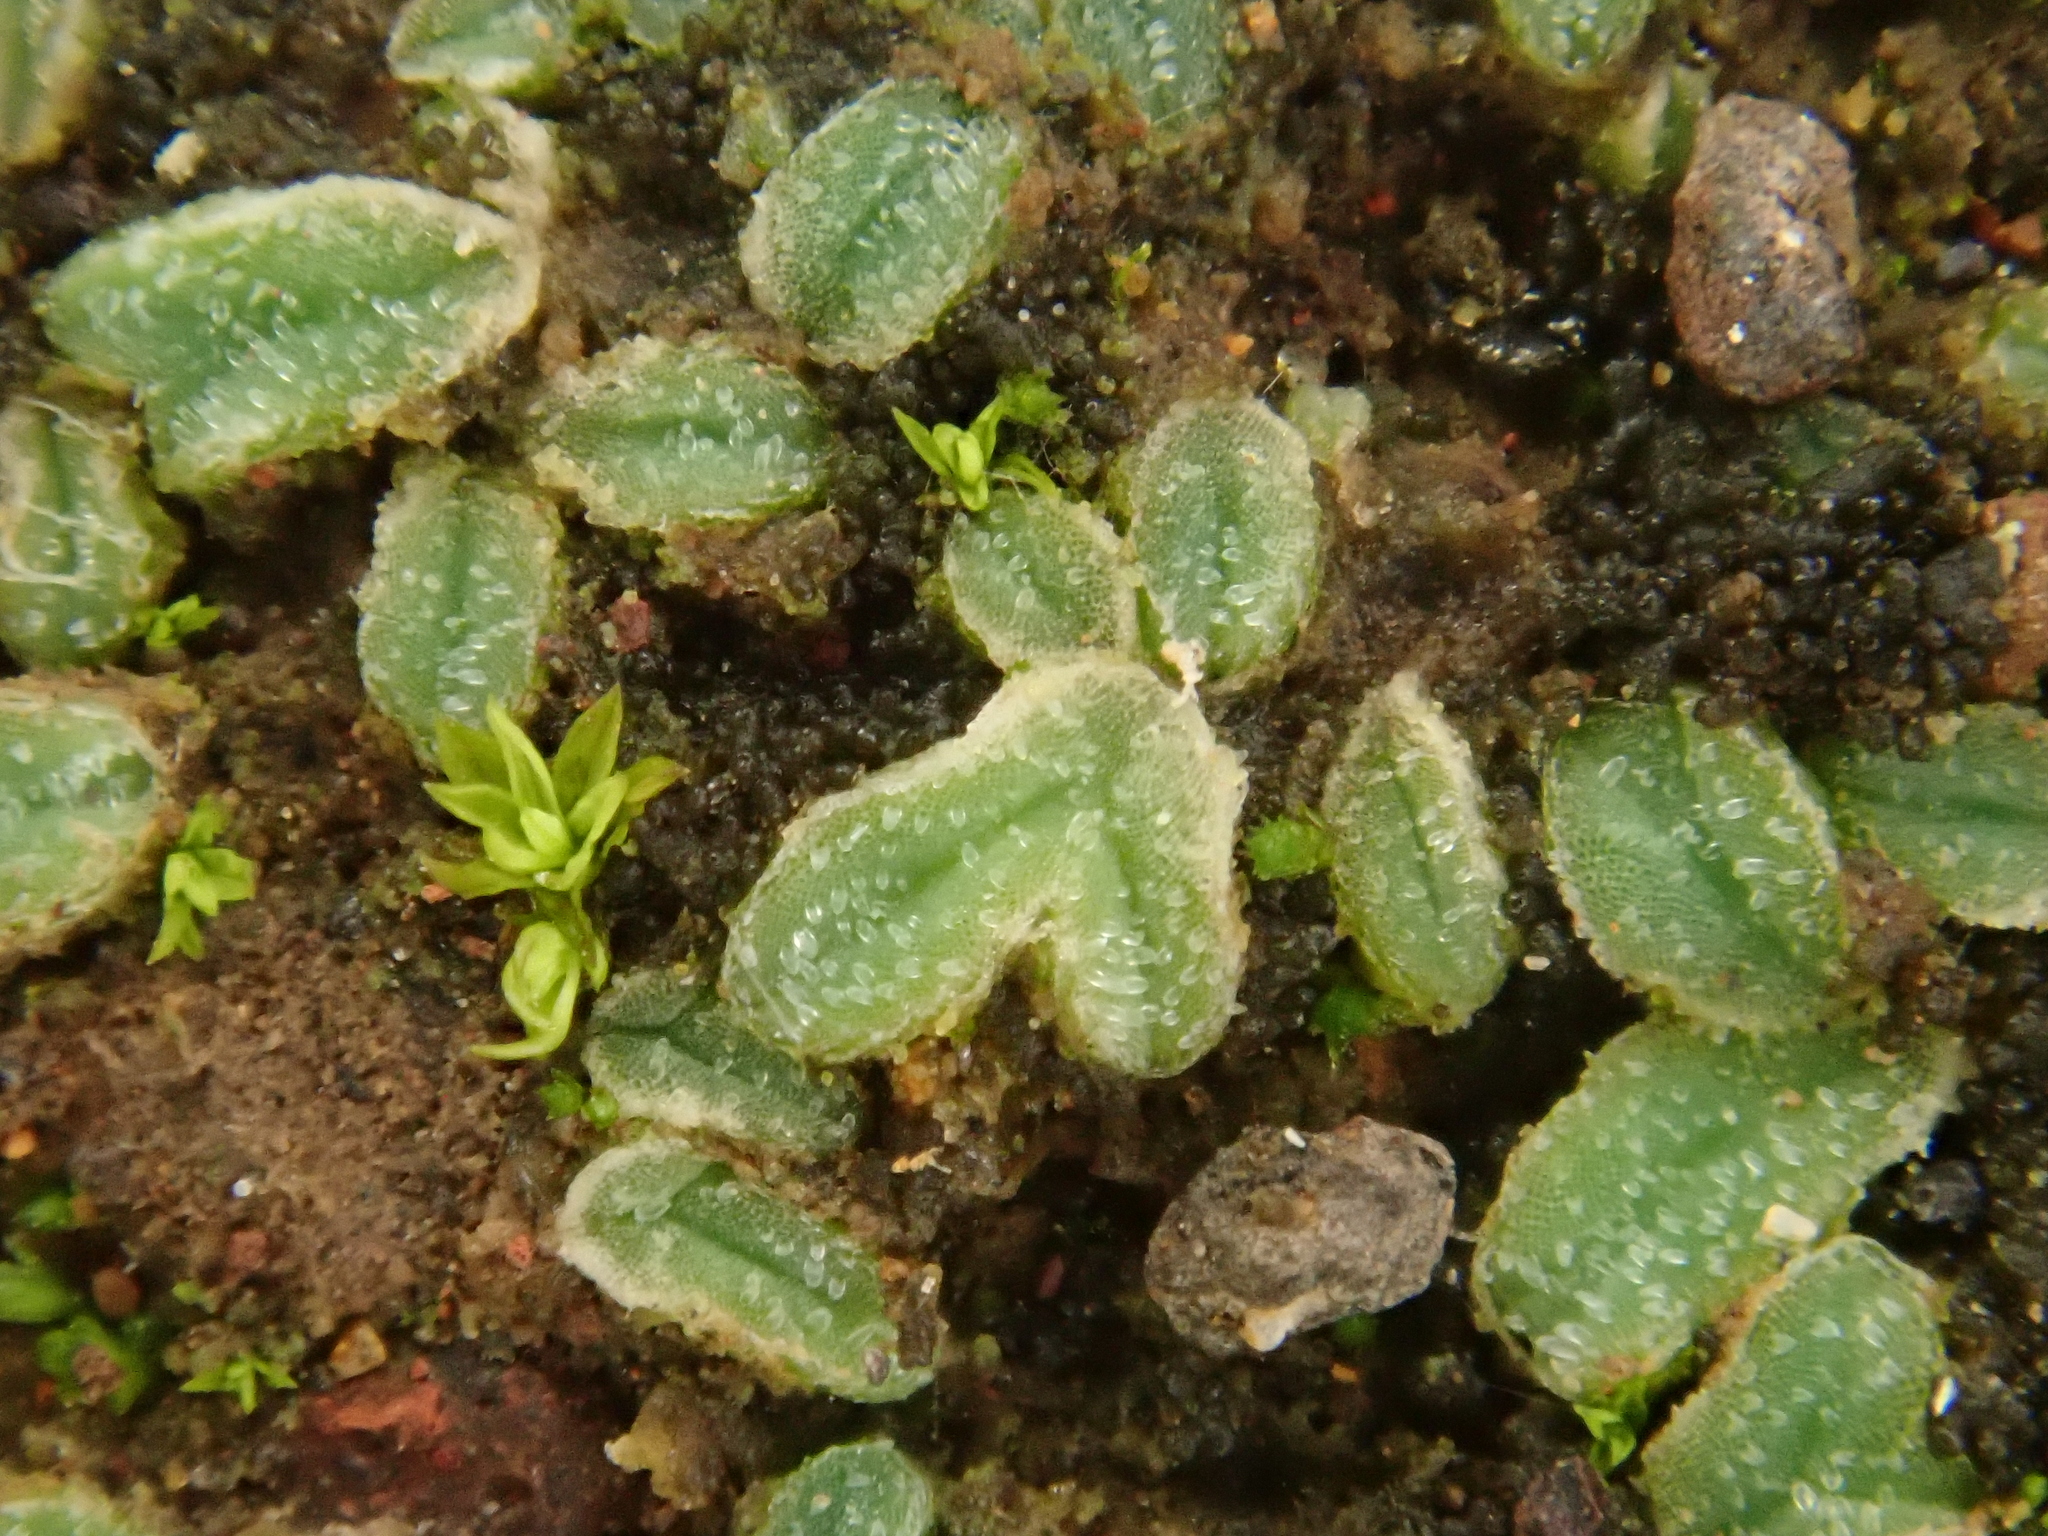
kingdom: Plantae
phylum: Marchantiophyta
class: Marchantiopsida
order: Marchantiales
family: Ricciaceae
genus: Riccia
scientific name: Riccia papillosa
